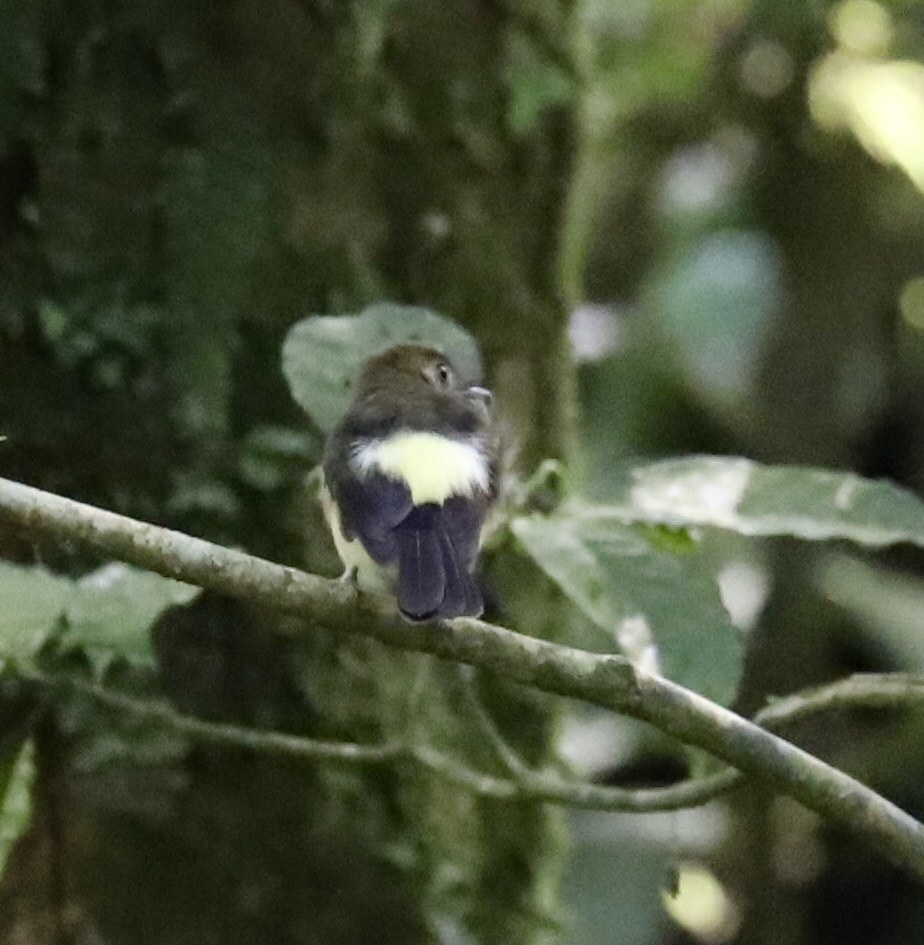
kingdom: Animalia
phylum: Chordata
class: Aves
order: Passeriformes
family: Tyrannidae
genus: Myiobius
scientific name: Myiobius barbatus
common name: Whiskered myiobius
